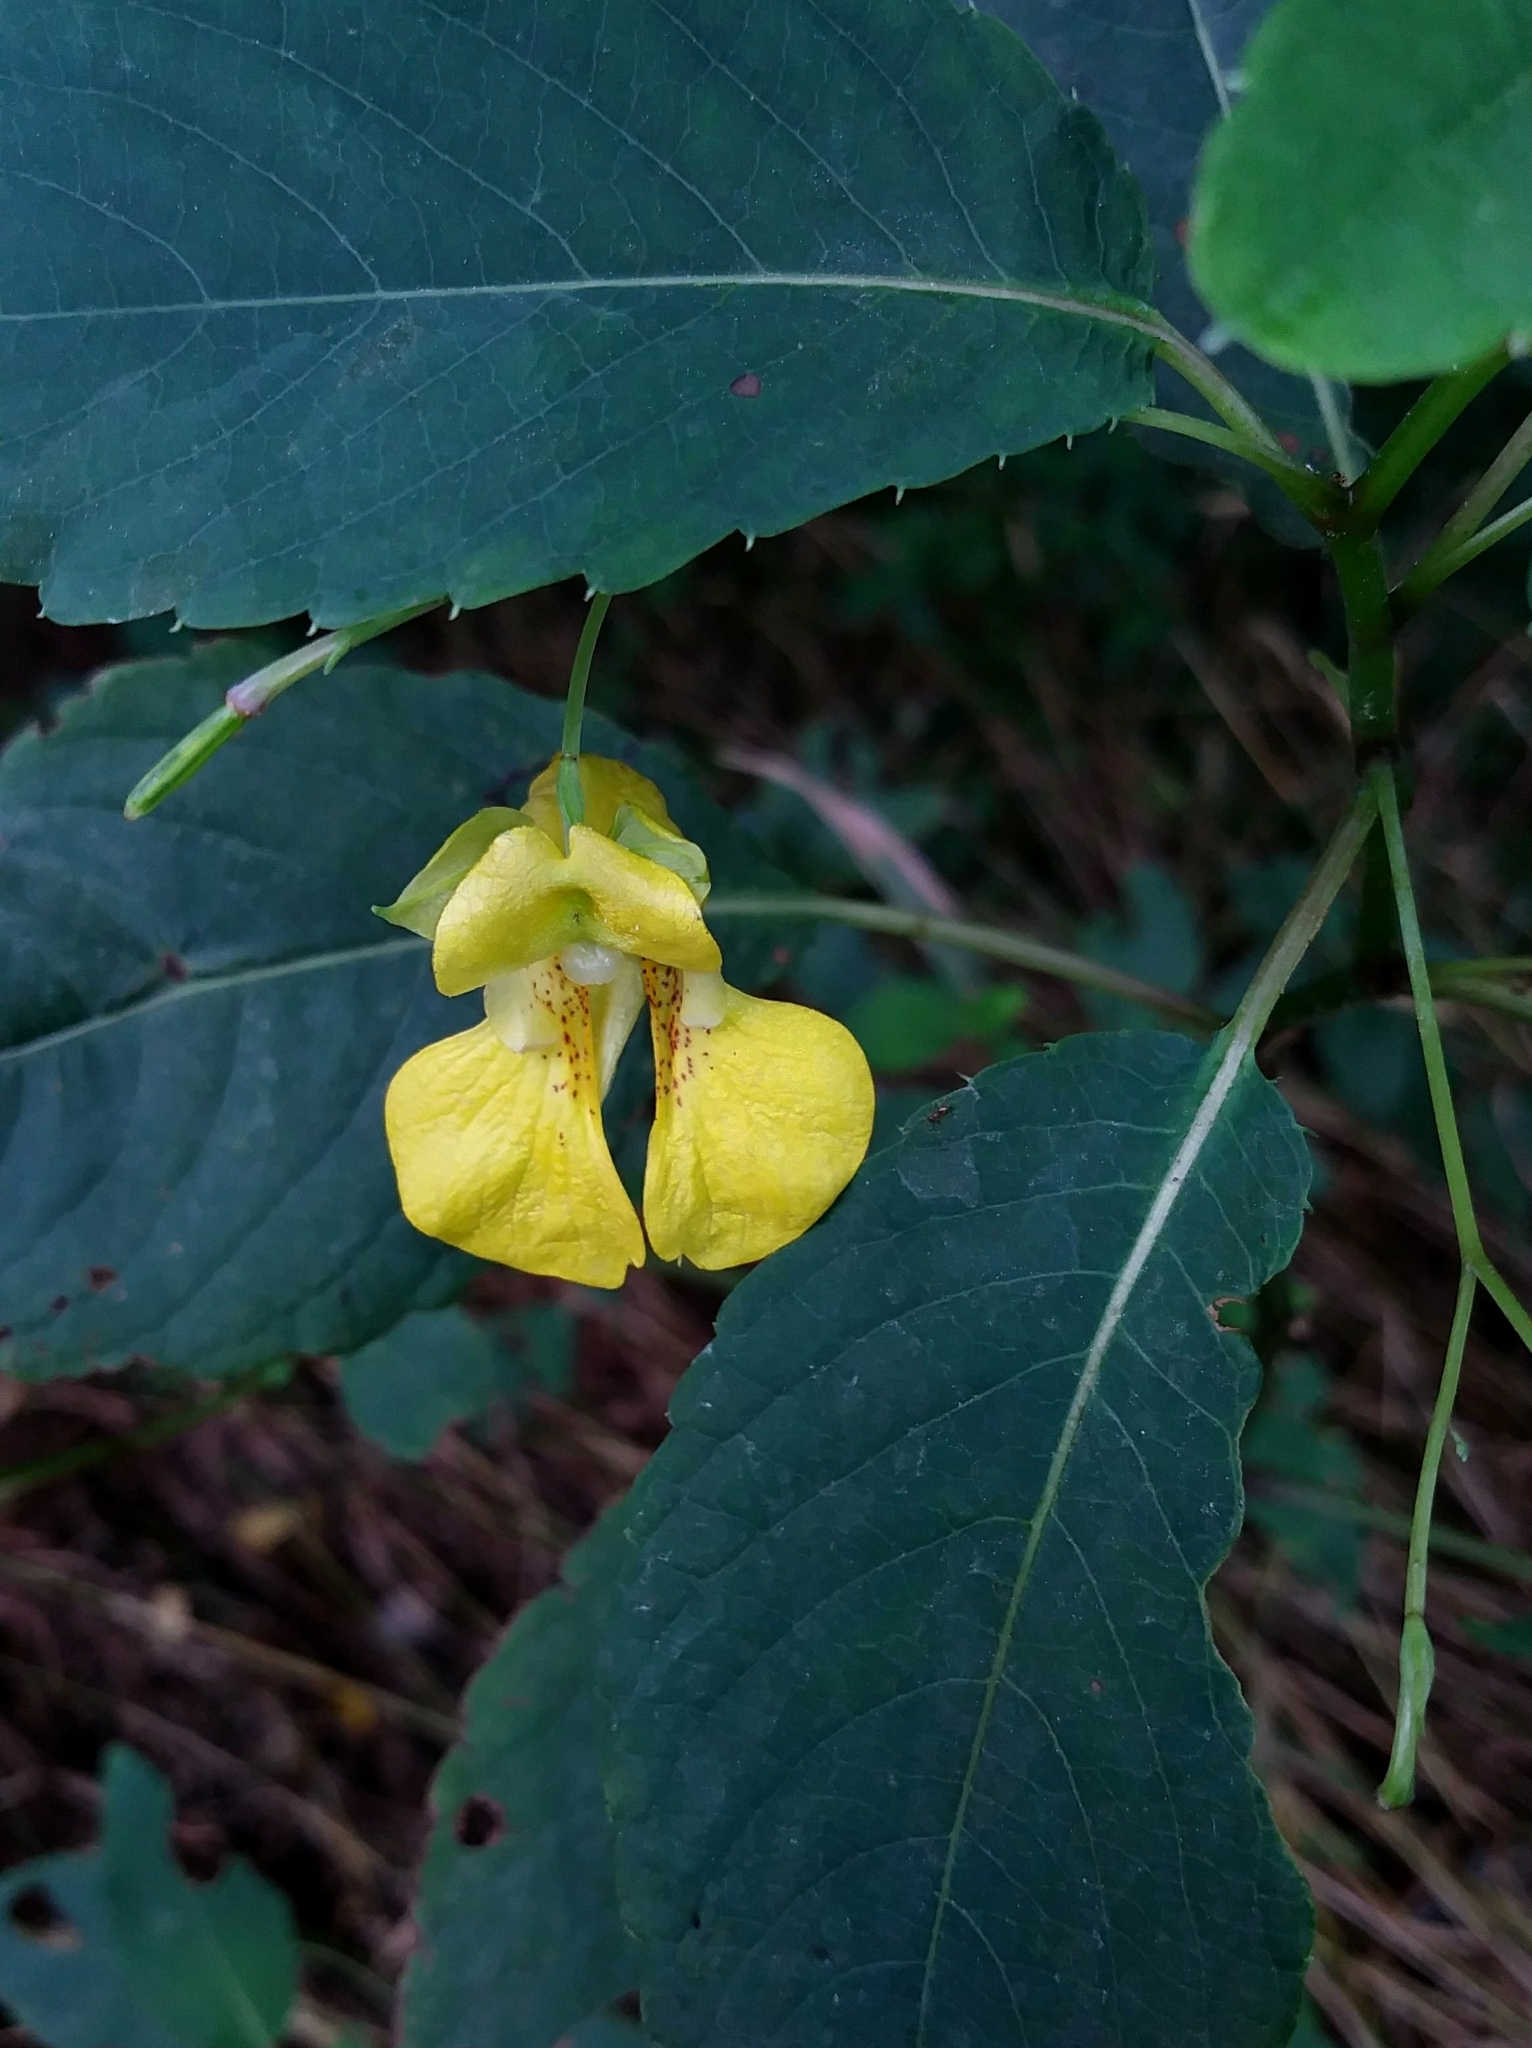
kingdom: Plantae
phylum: Tracheophyta
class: Magnoliopsida
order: Ericales
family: Balsaminaceae
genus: Impatiens
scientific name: Impatiens pallida
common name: Pale snapweed
